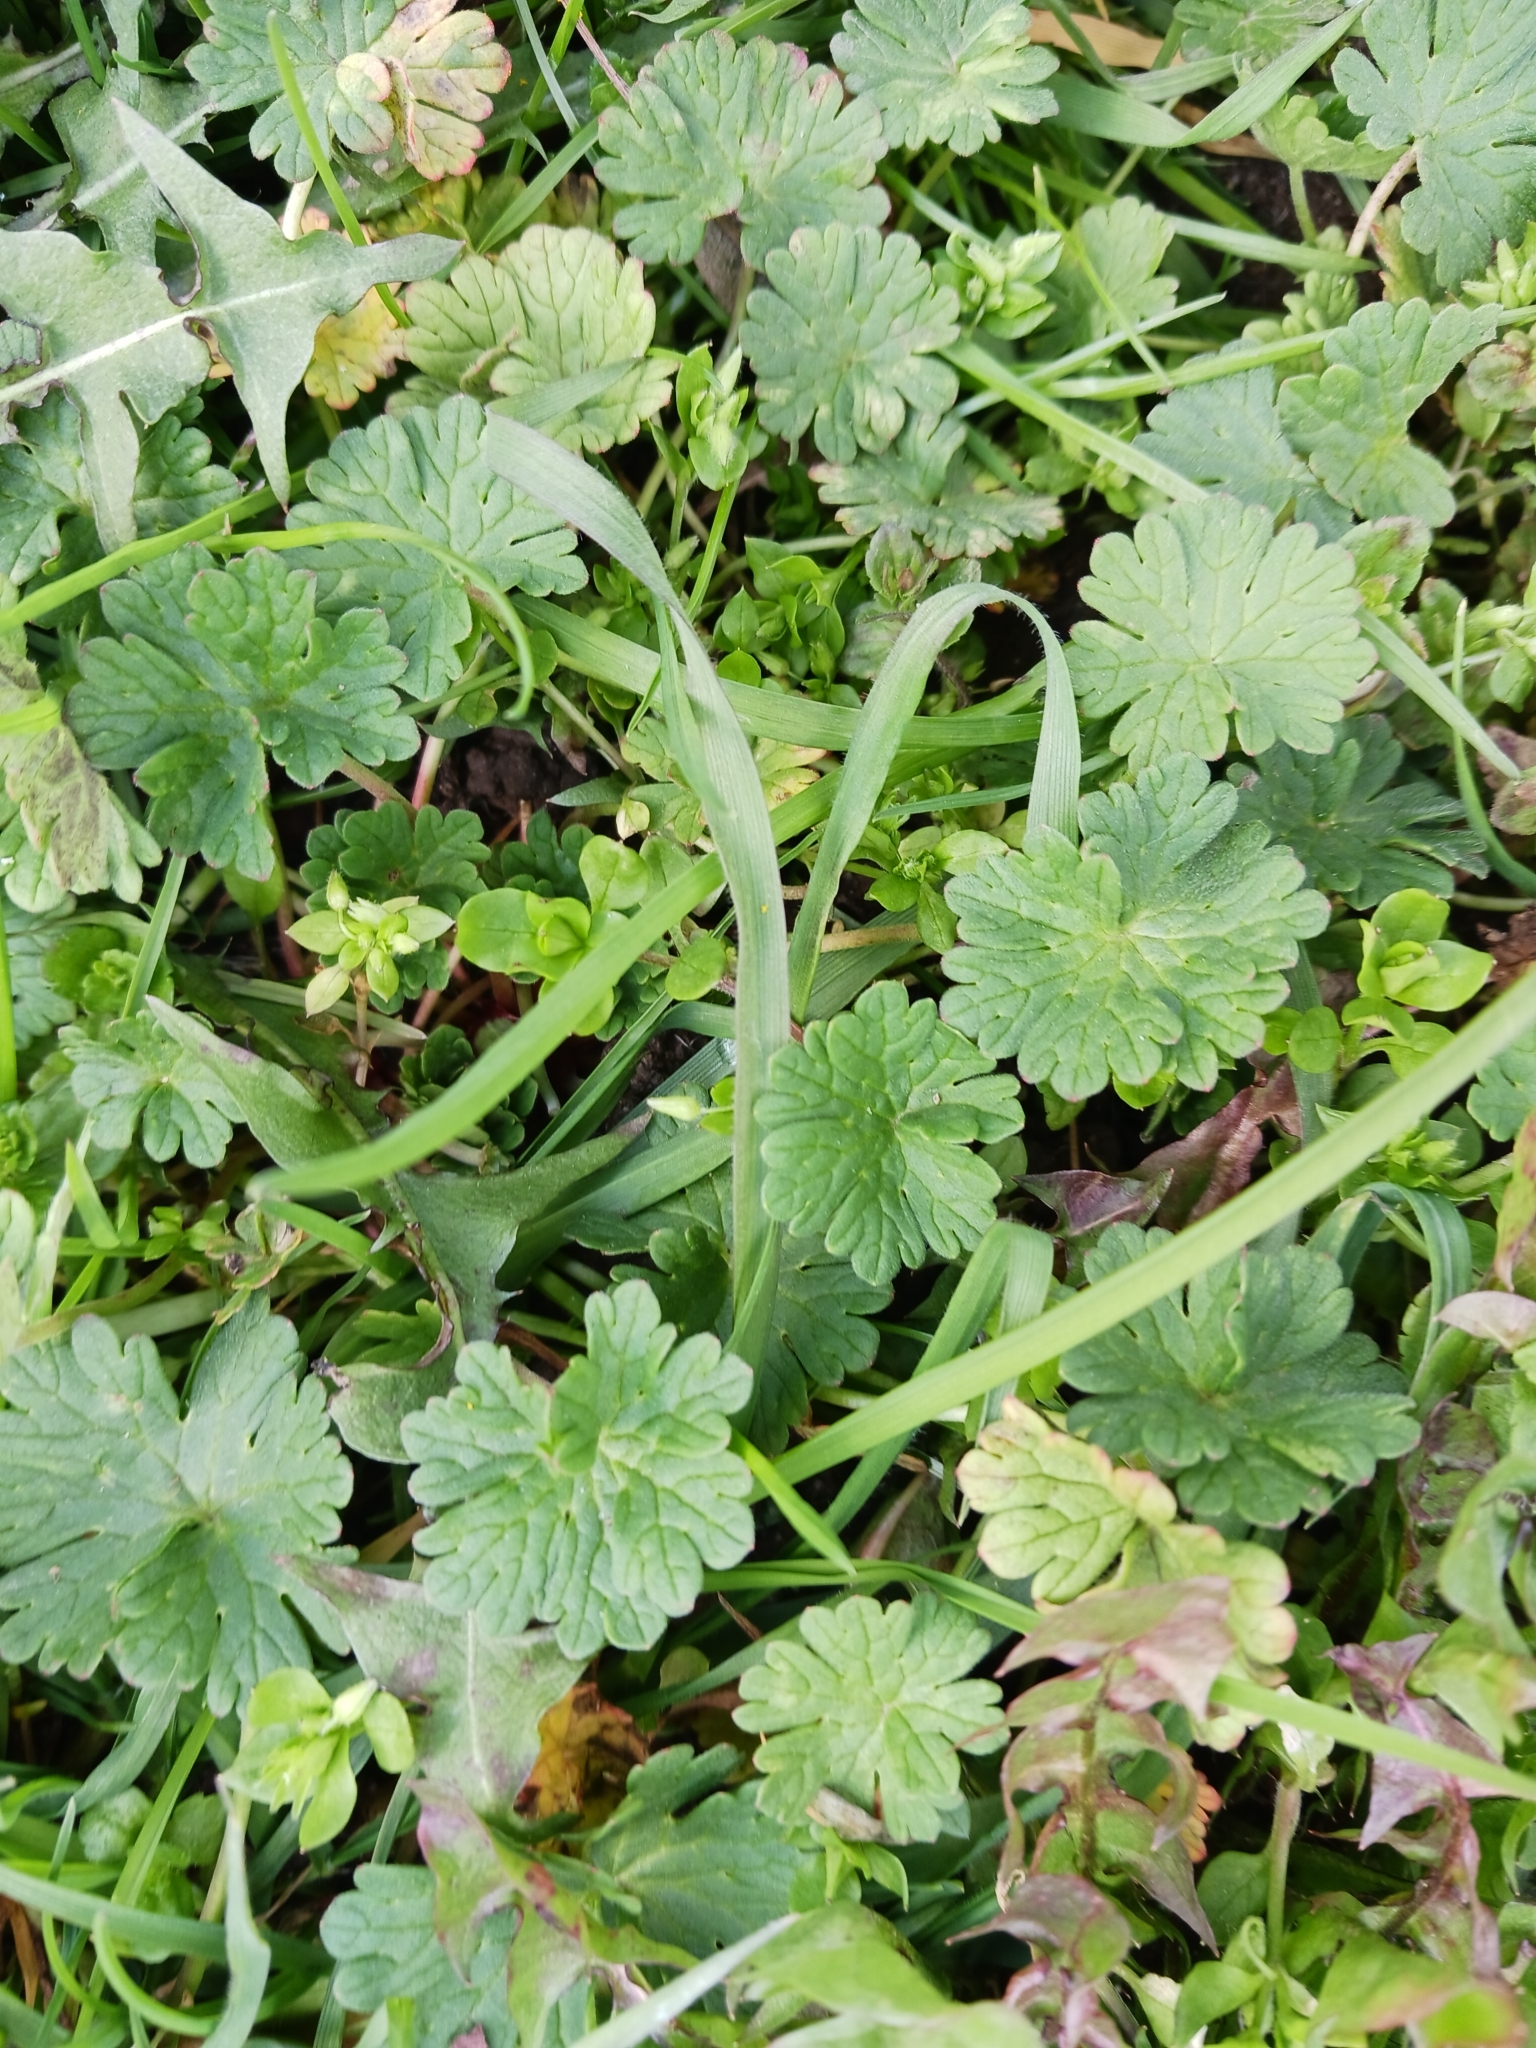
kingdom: Plantae
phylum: Tracheophyta
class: Magnoliopsida
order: Geraniales
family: Geraniaceae
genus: Geranium
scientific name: Geranium pyrenaicum
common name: Hedgerow crane's-bill
